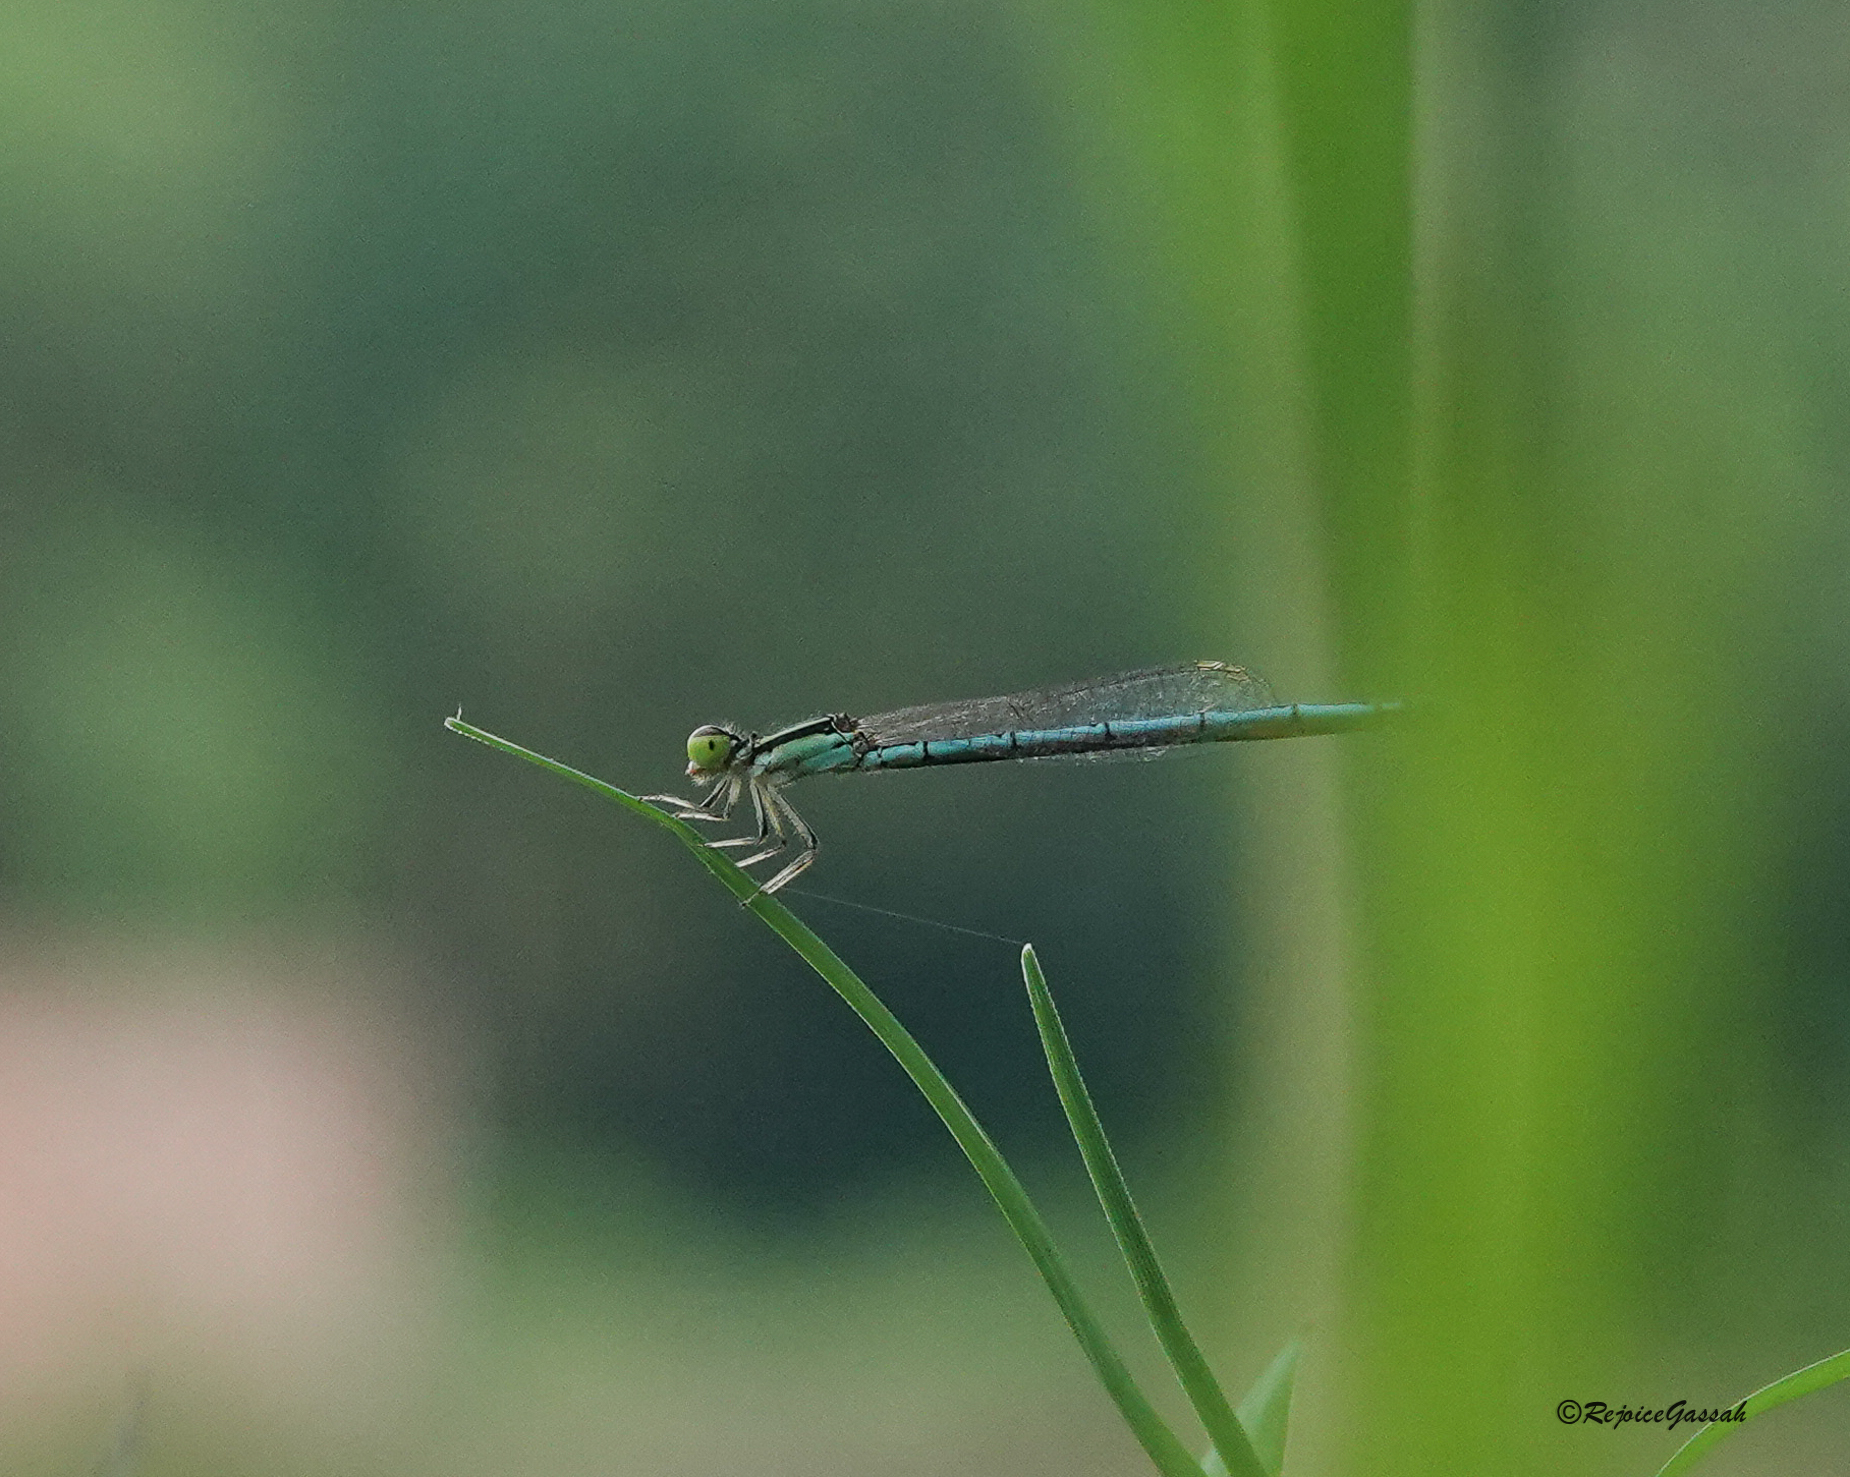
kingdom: Animalia
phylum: Arthropoda
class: Insecta
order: Odonata
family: Coenagrionidae
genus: Agriocnemis
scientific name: Agriocnemis lacteola
